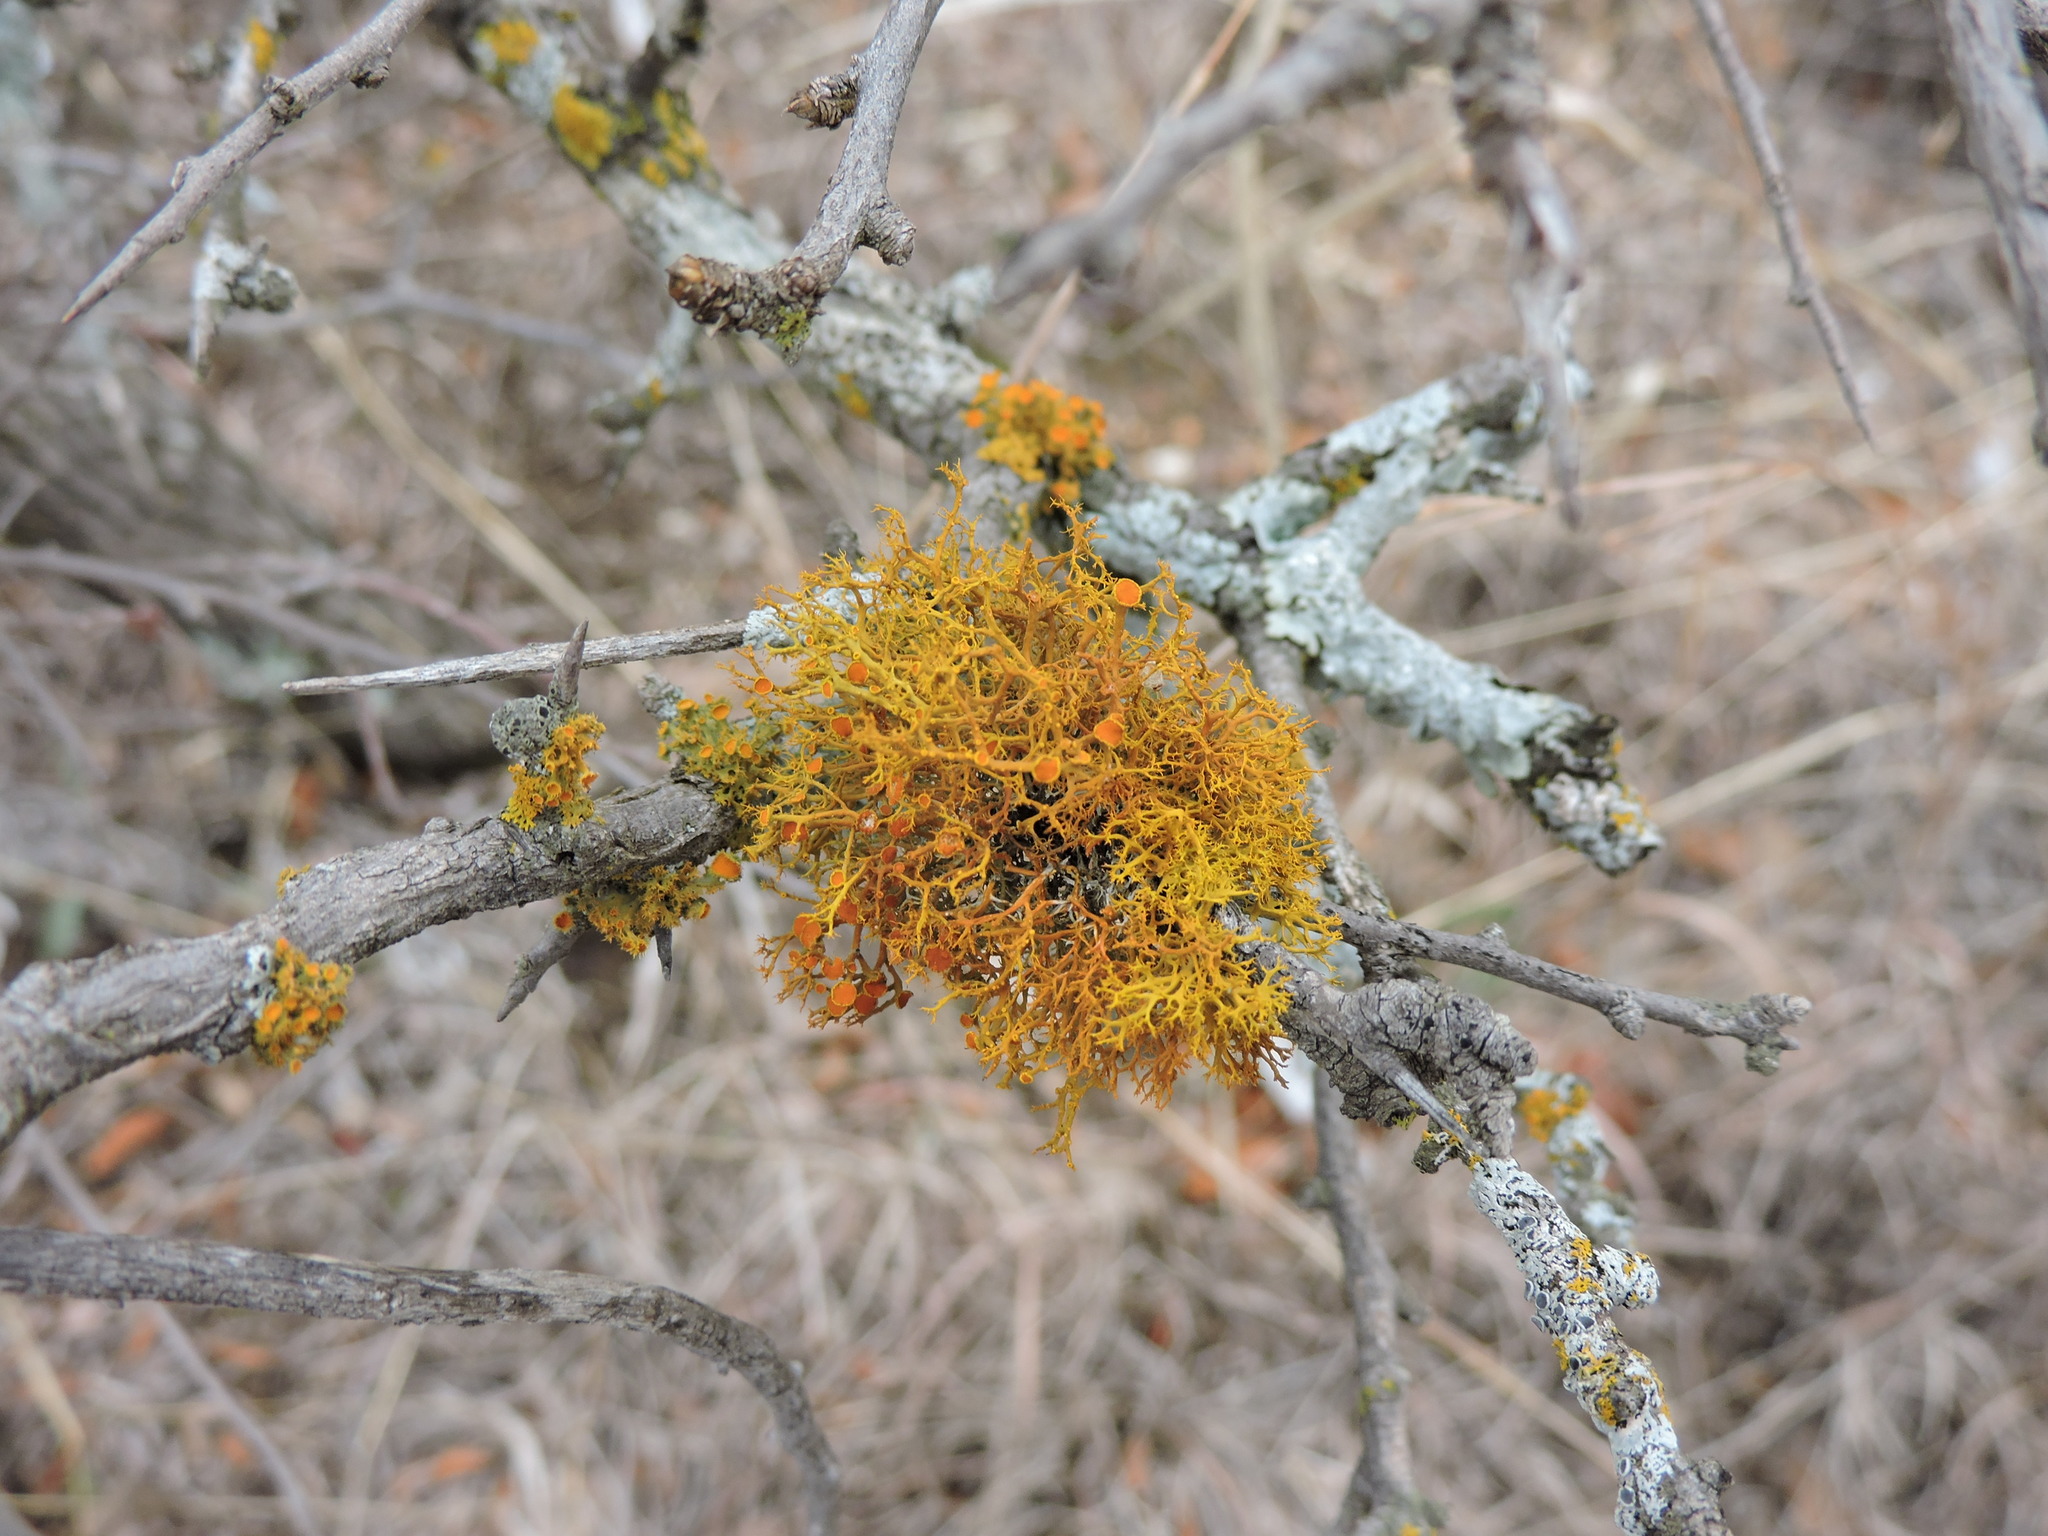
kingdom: Fungi
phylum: Ascomycota
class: Lecanoromycetes
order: Teloschistales
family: Teloschistaceae
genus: Teloschistes
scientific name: Teloschistes exilis
